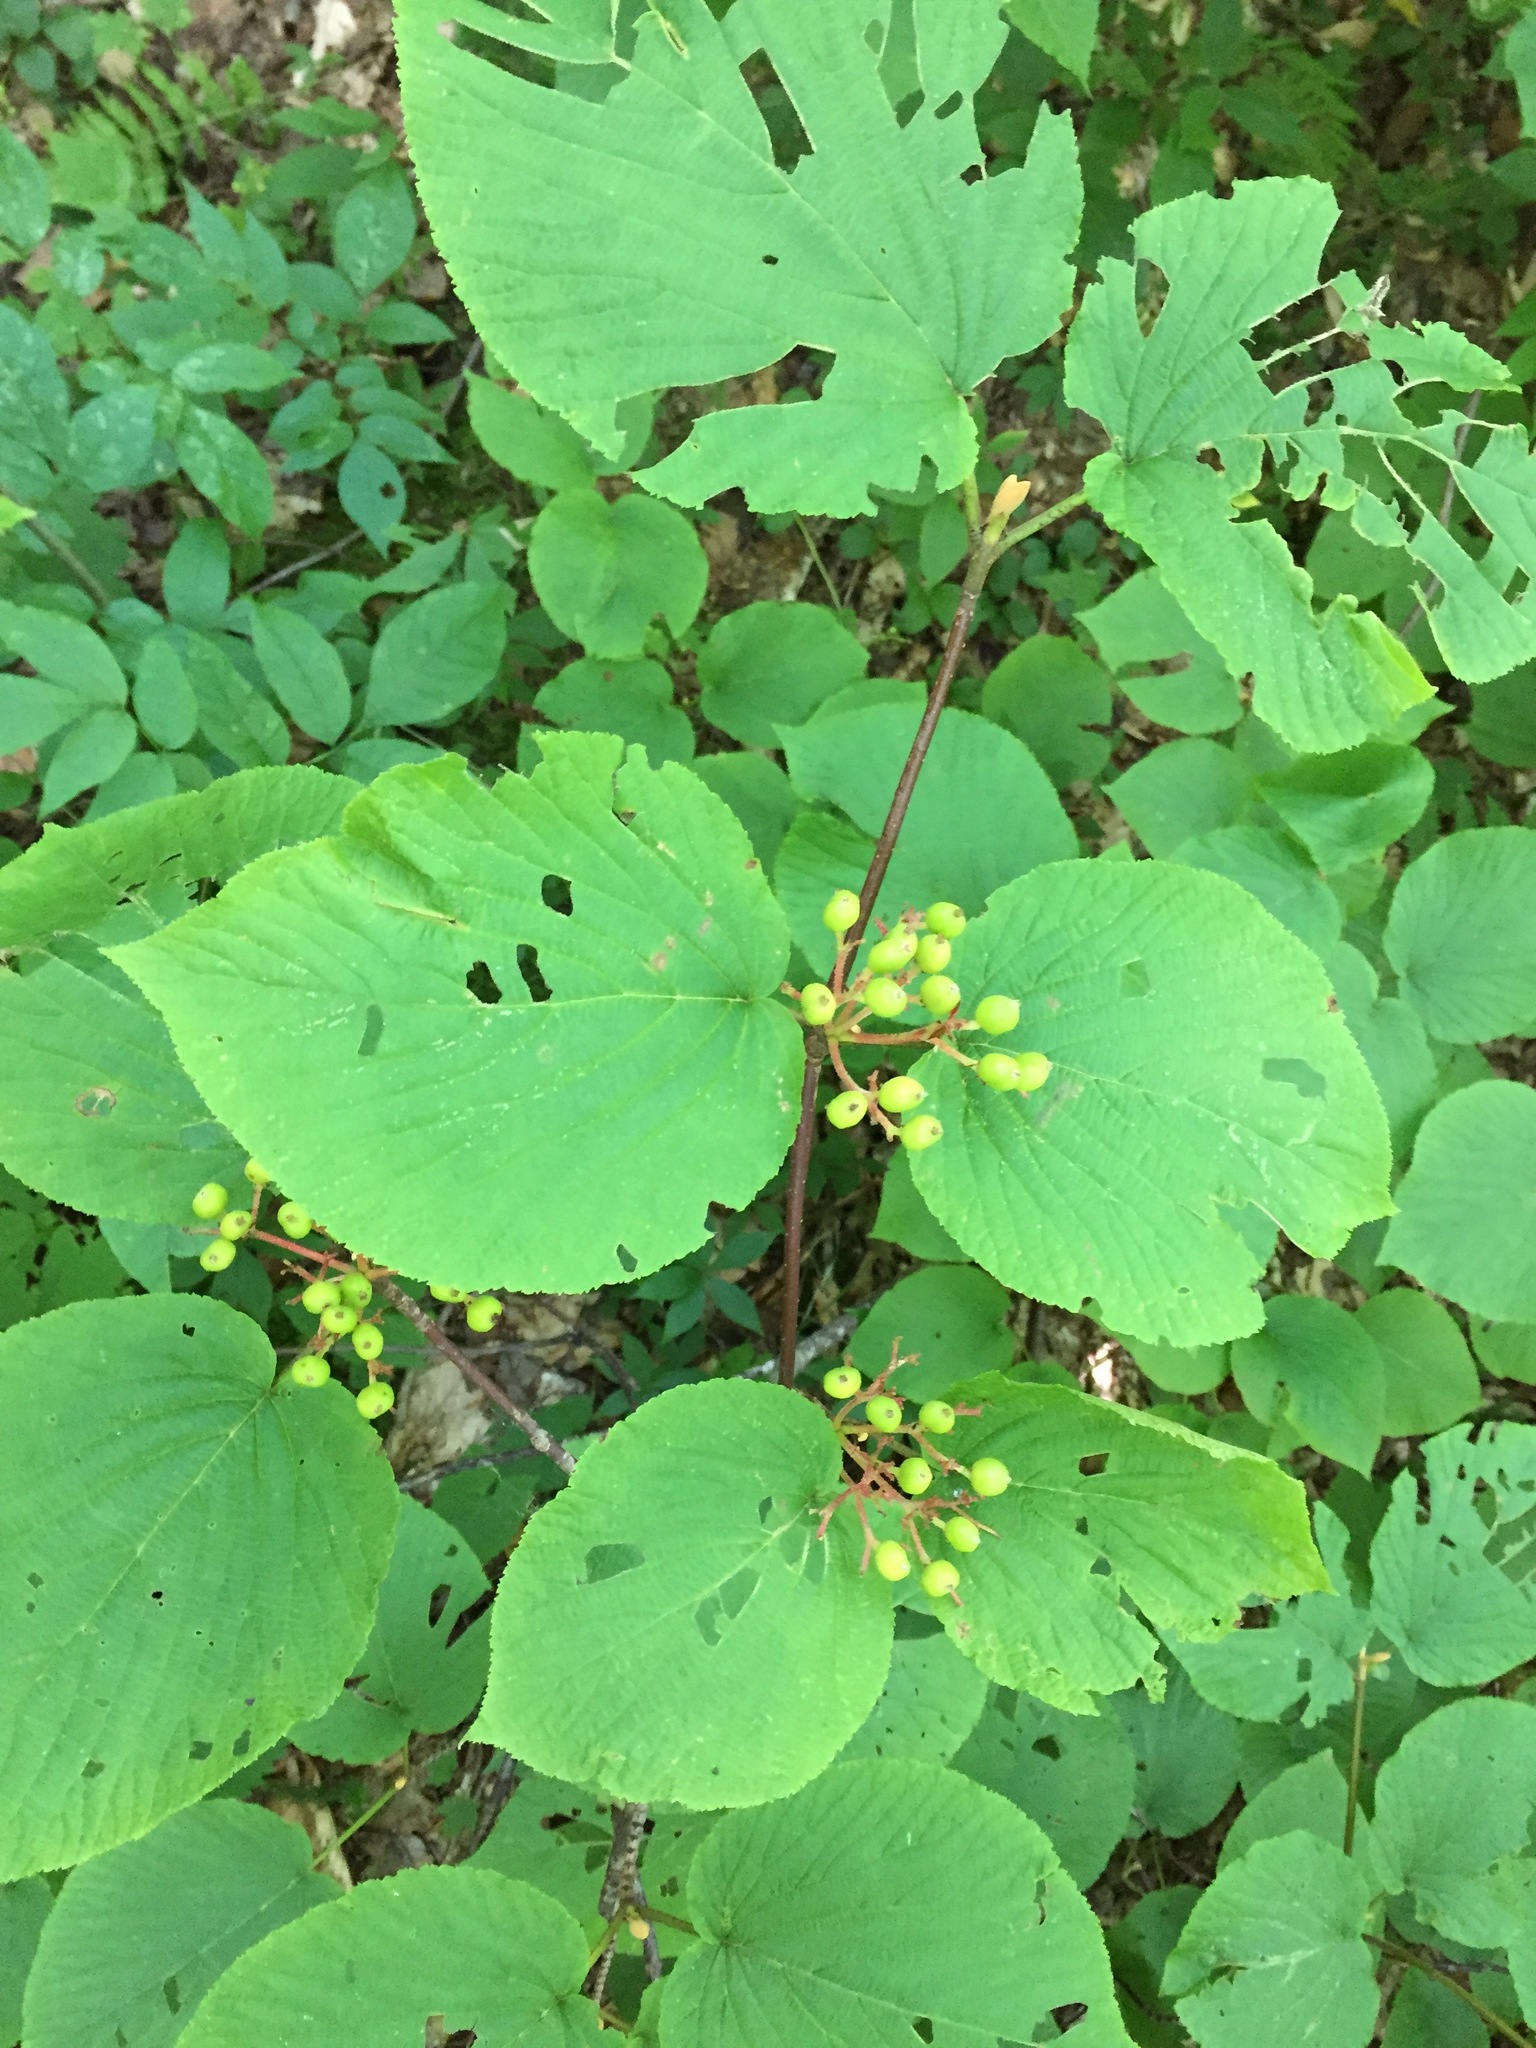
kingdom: Plantae
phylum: Tracheophyta
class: Magnoliopsida
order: Dipsacales
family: Viburnaceae
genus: Viburnum
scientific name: Viburnum lantanoides
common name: Hobblebush
